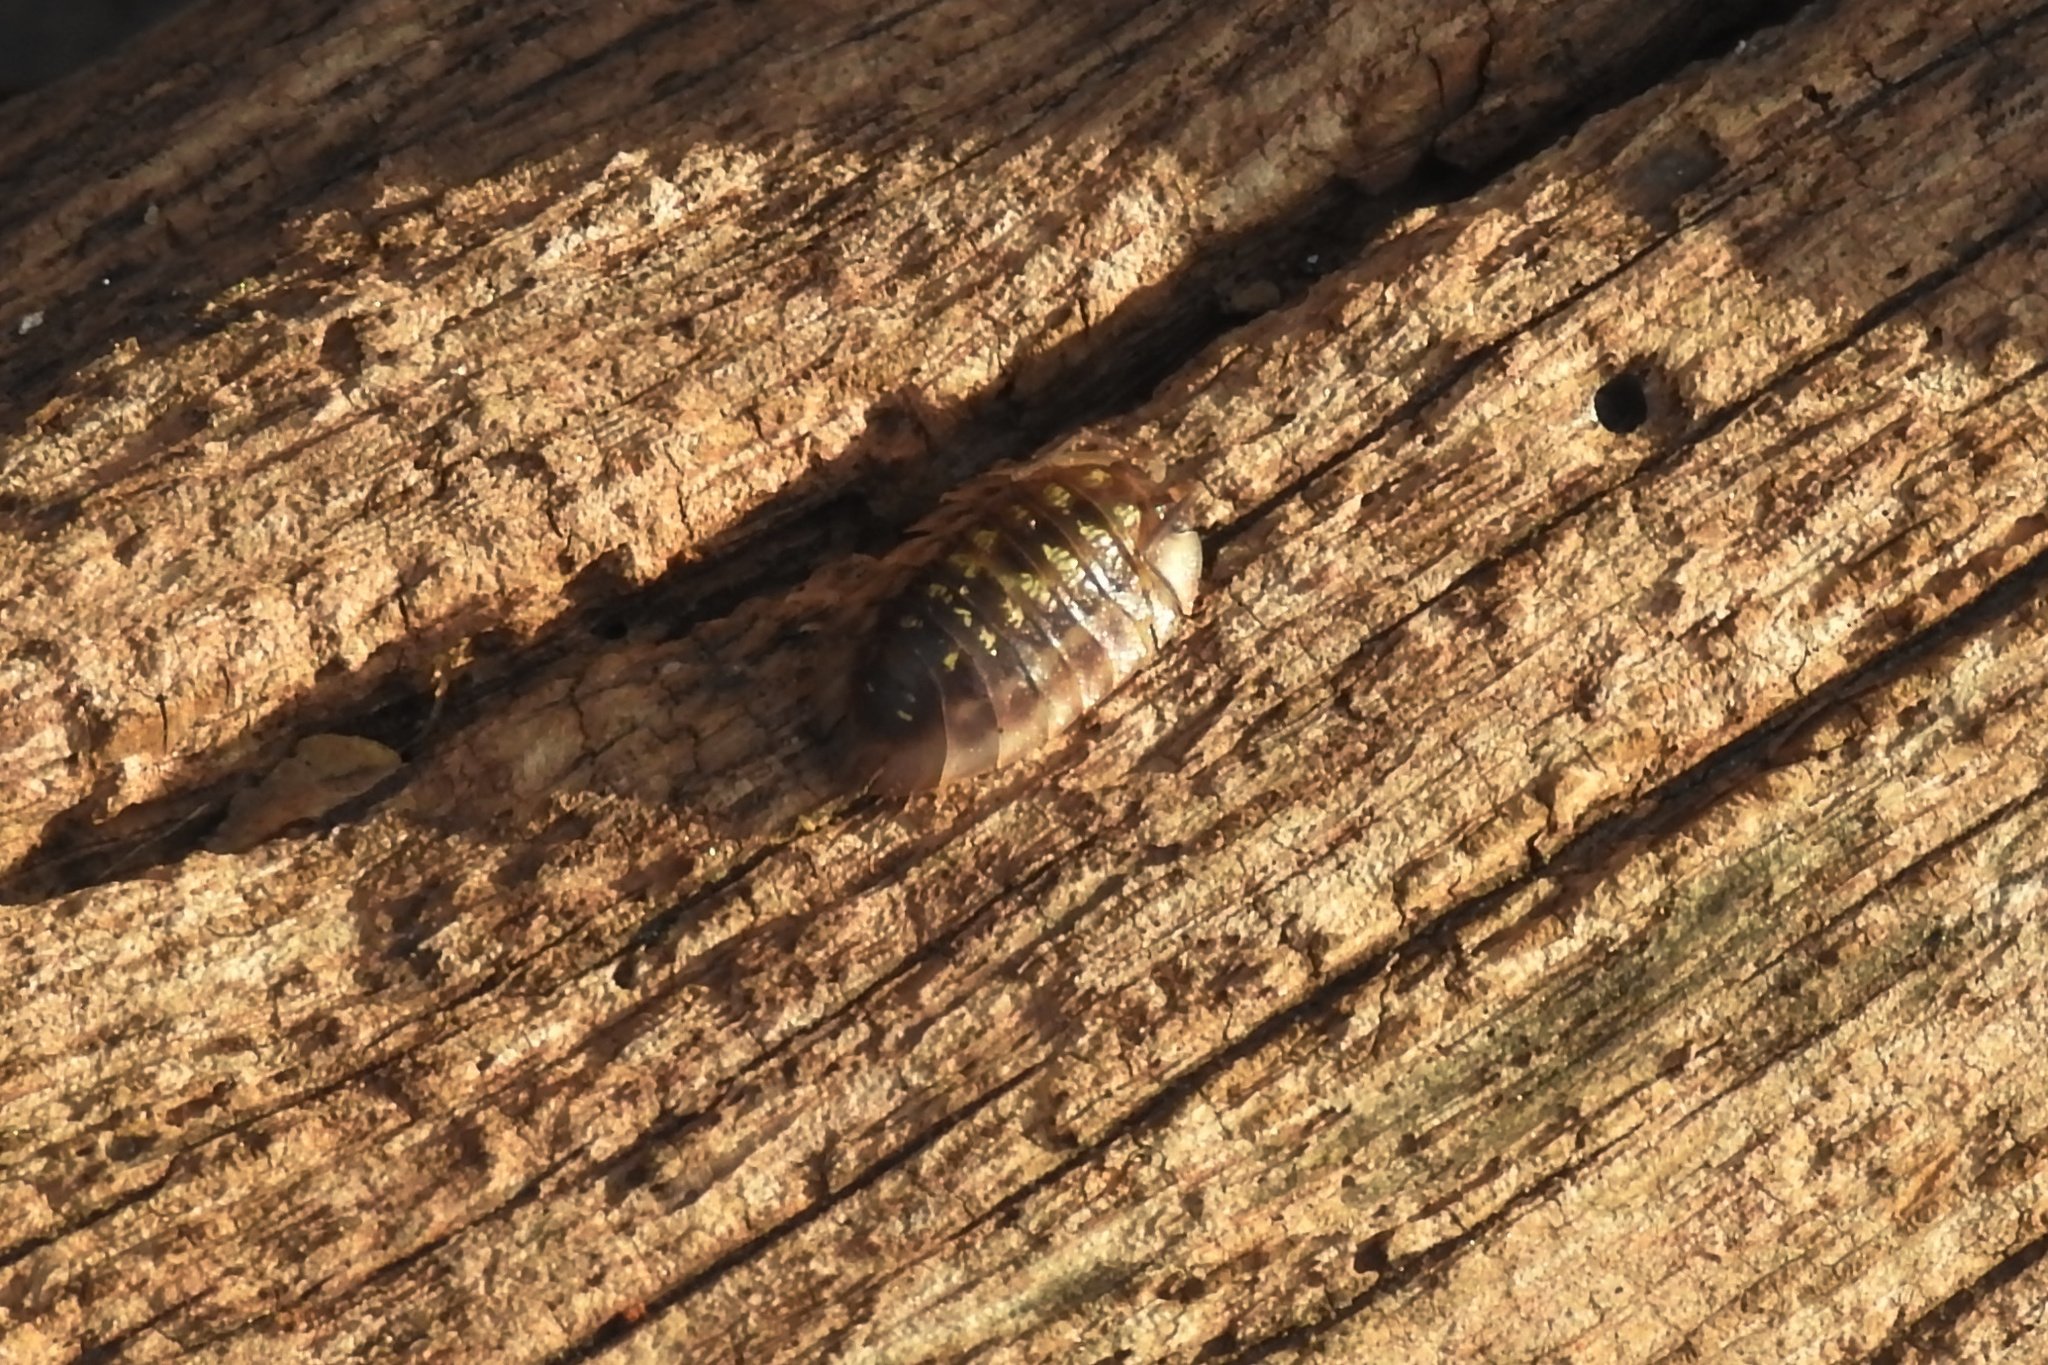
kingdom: Animalia
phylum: Arthropoda
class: Malacostraca
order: Isopoda
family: Oniscidae
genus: Oniscus
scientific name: Oniscus asellus
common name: Common shiny woodlouse
